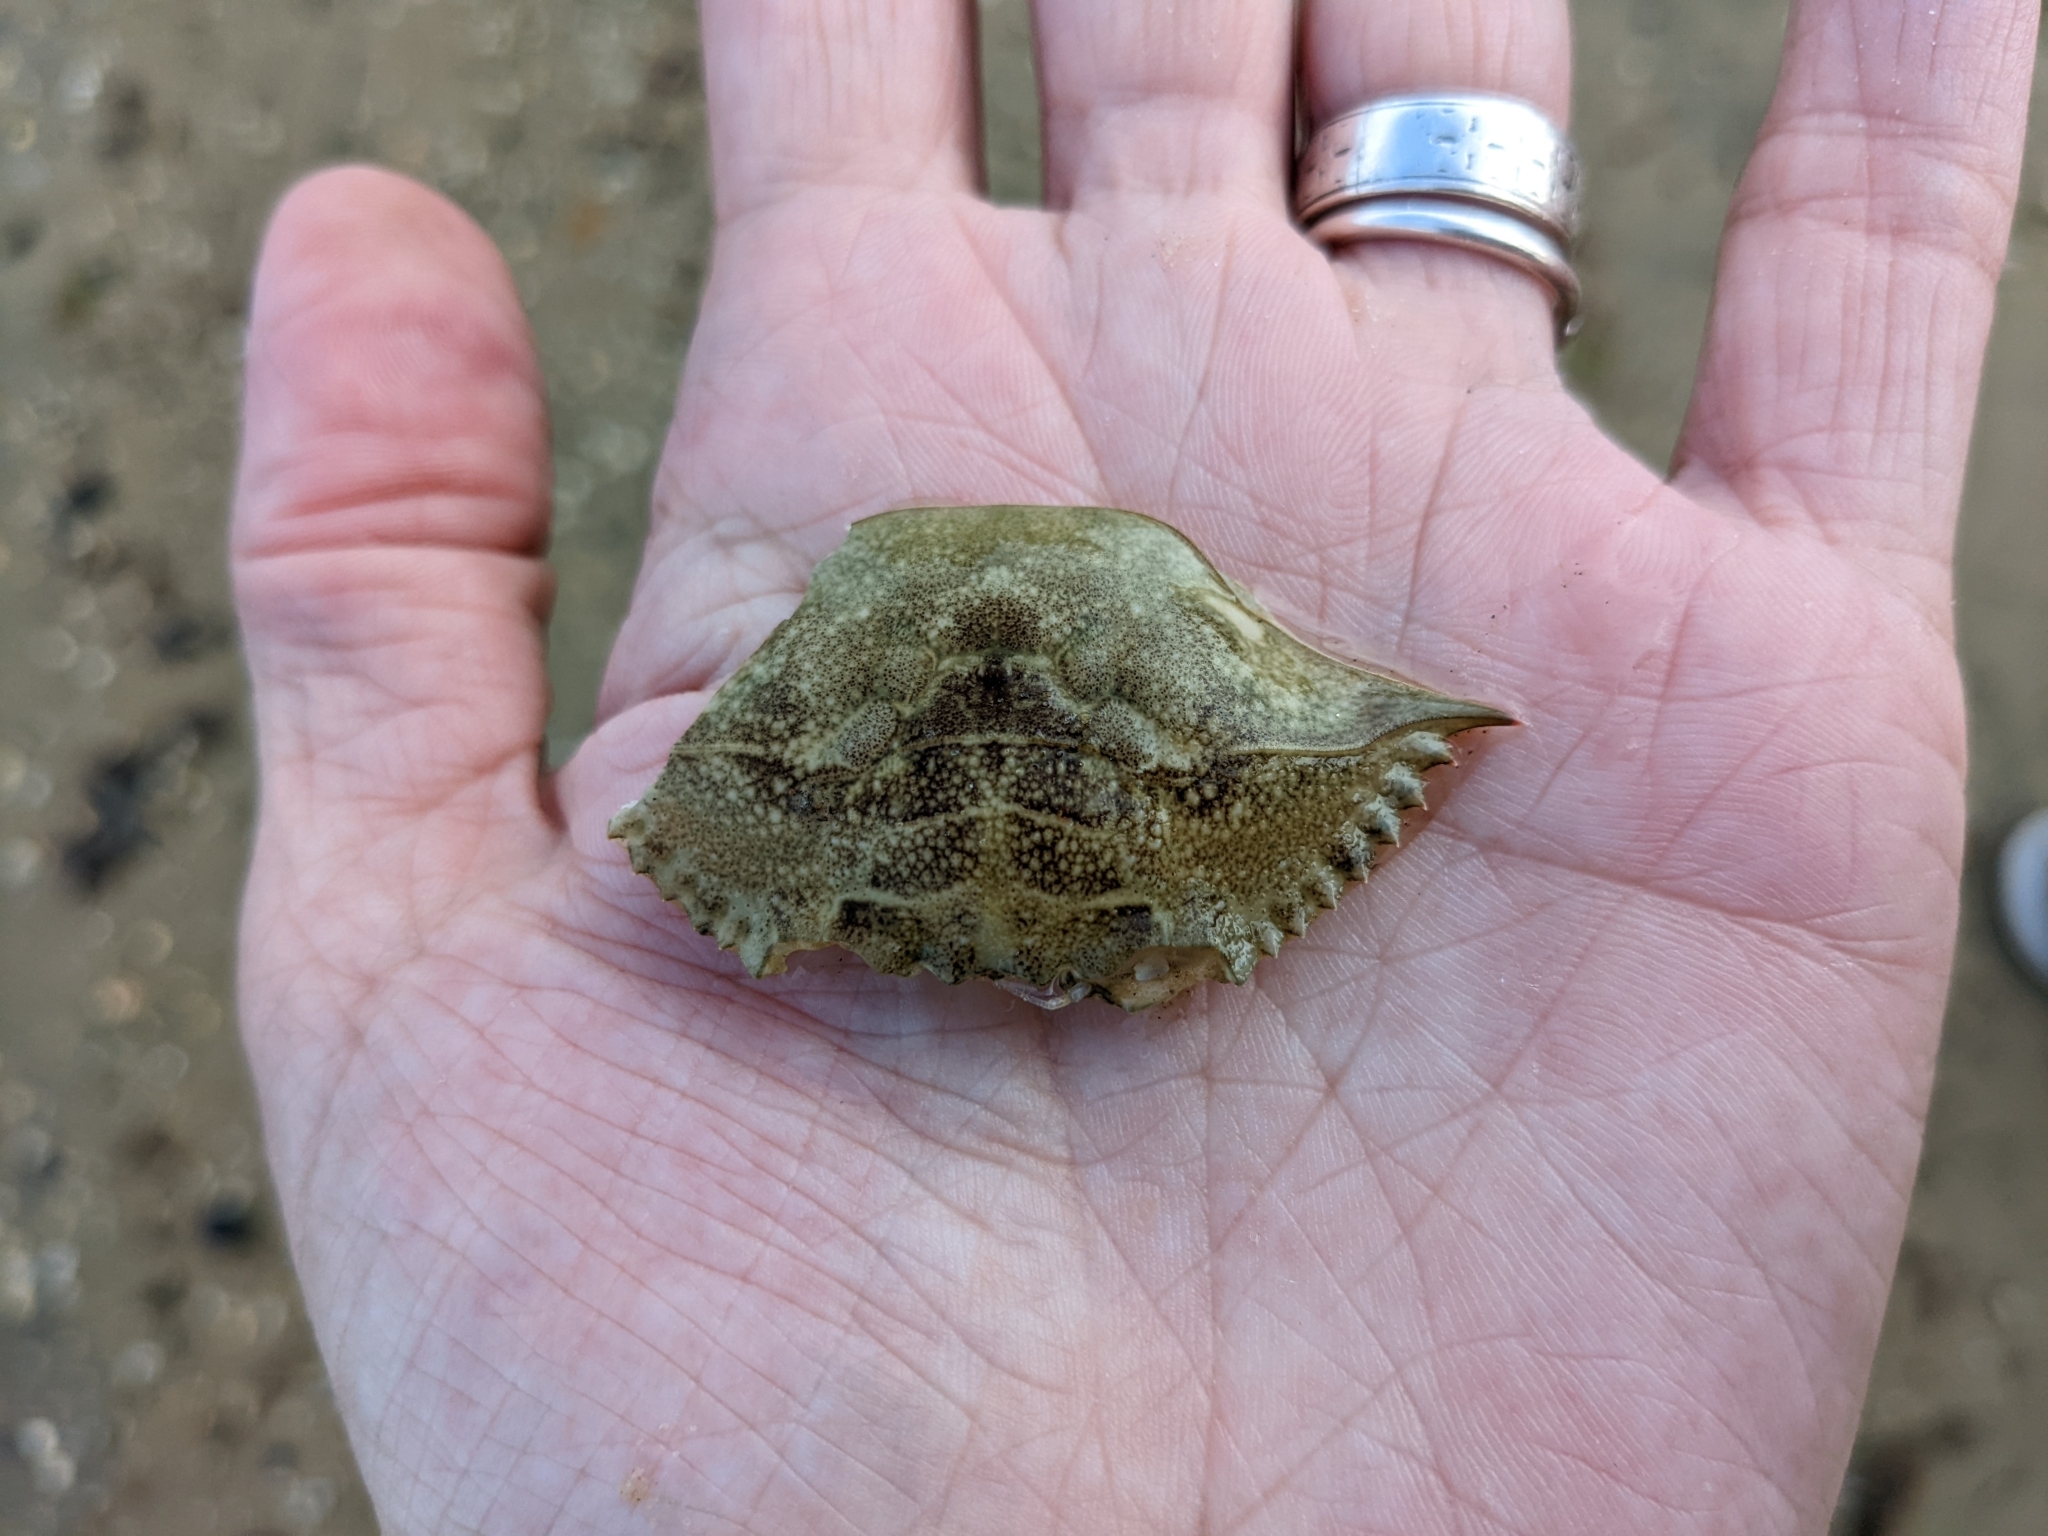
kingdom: Animalia
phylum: Arthropoda
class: Malacostraca
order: Decapoda
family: Portunidae
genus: Callinectes
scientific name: Callinectes sapidus
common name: Blue crab
